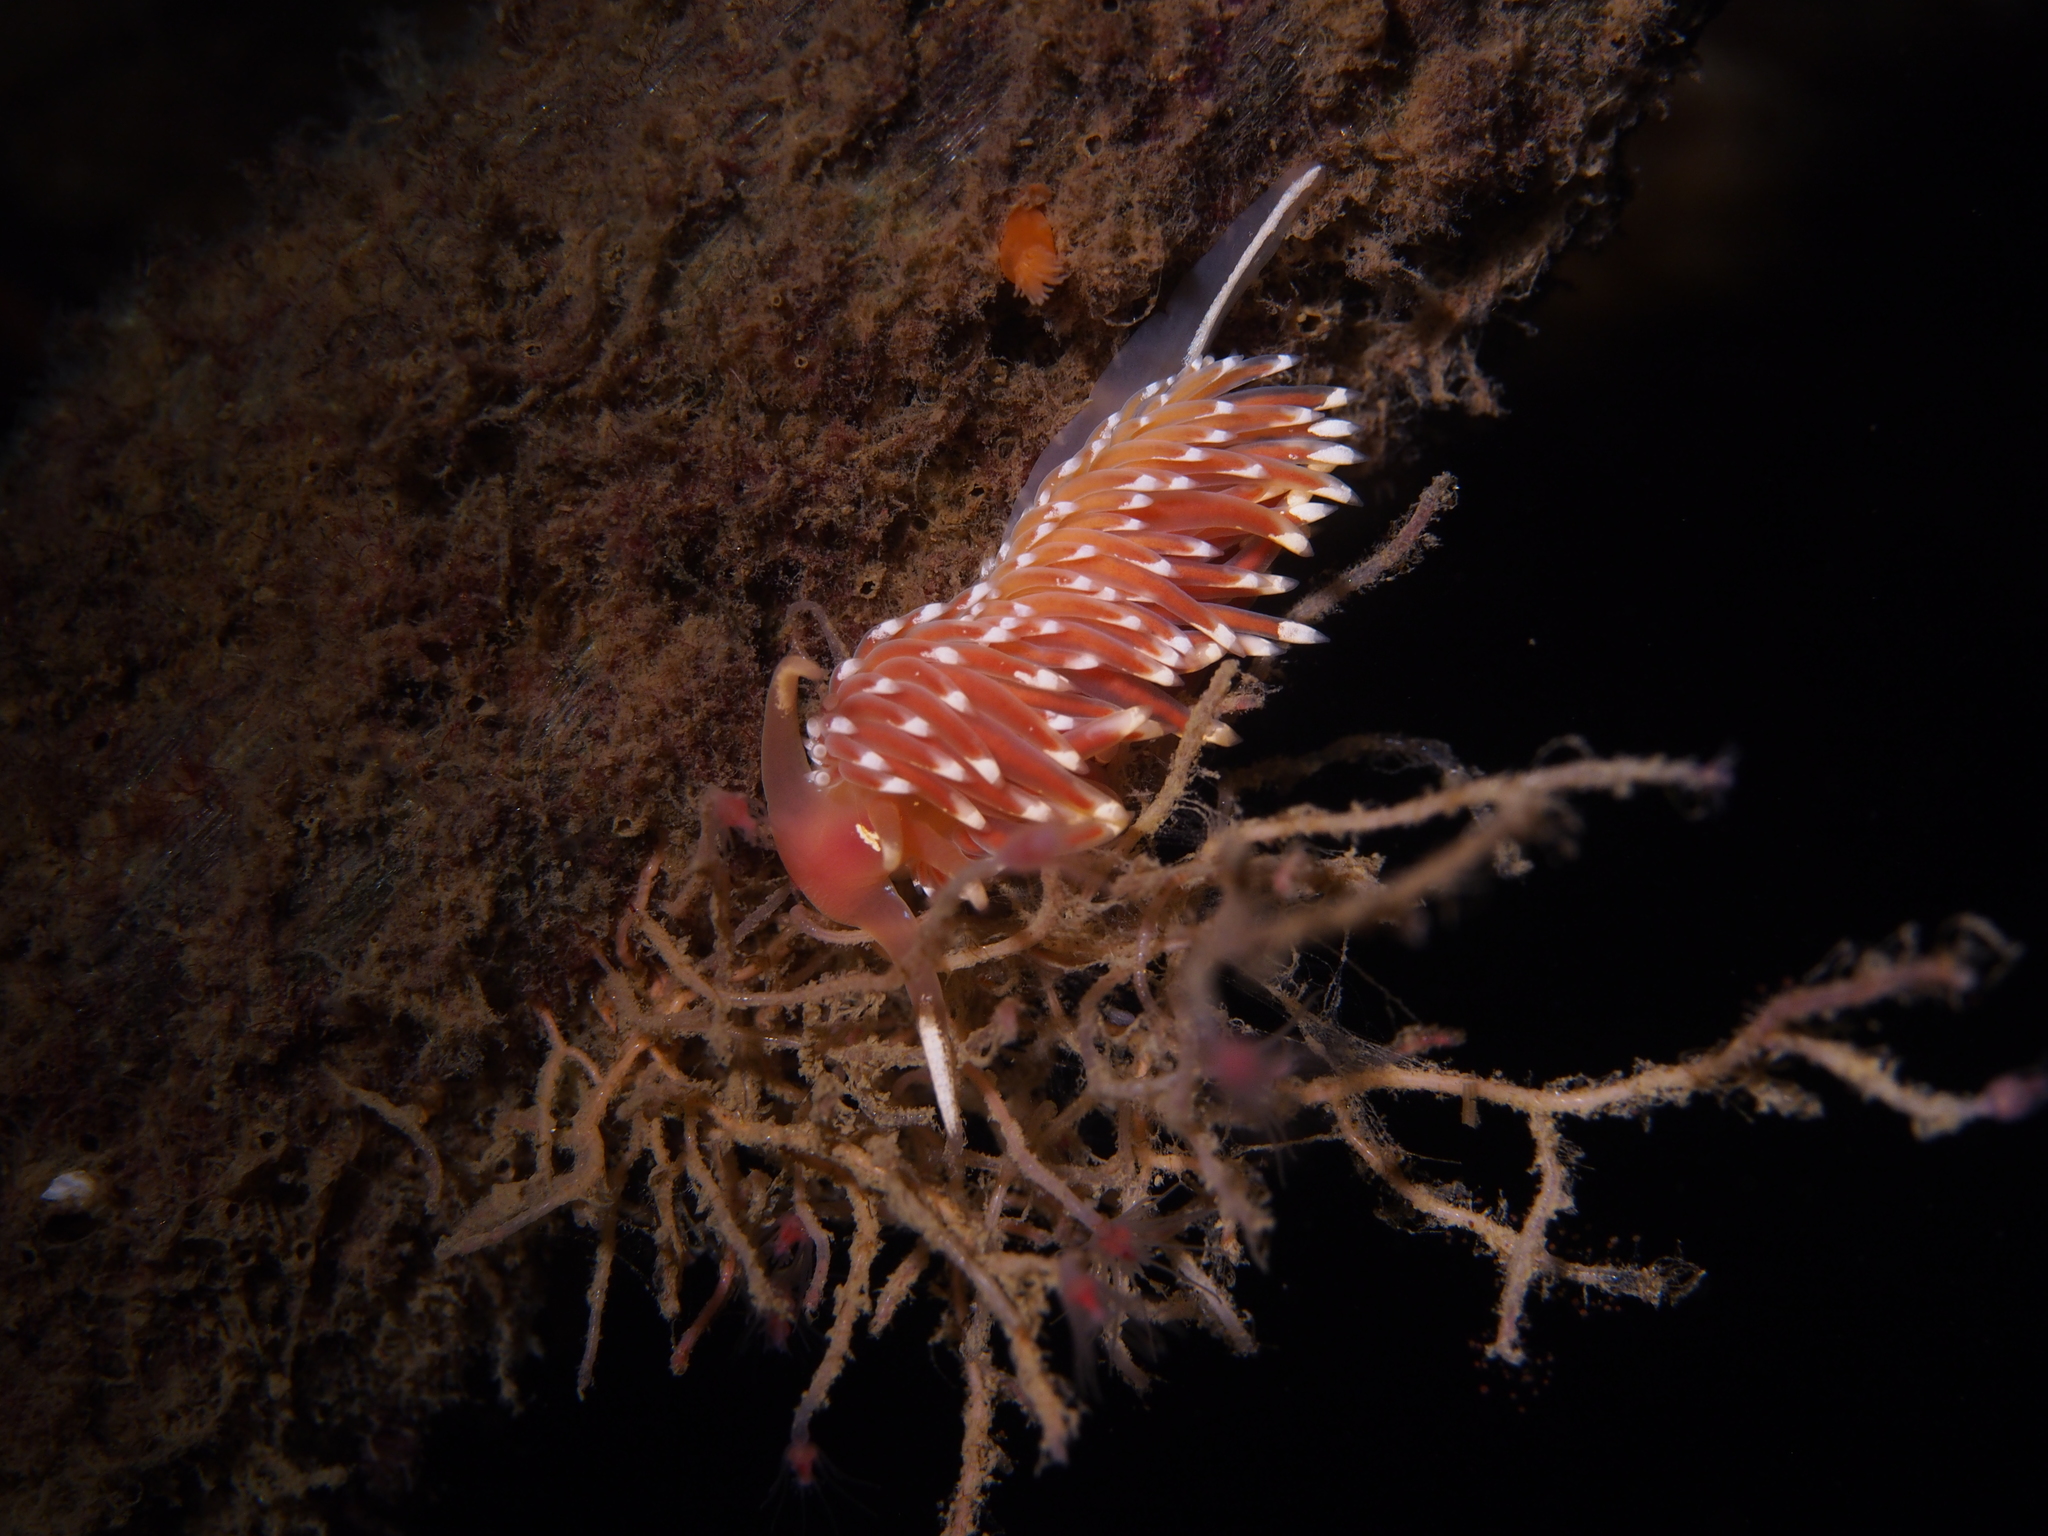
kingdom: Animalia
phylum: Mollusca
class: Gastropoda
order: Nudibranchia
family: Facelinidae
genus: Facelina
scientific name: Facelina bostoniensis
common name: Boston facelina
